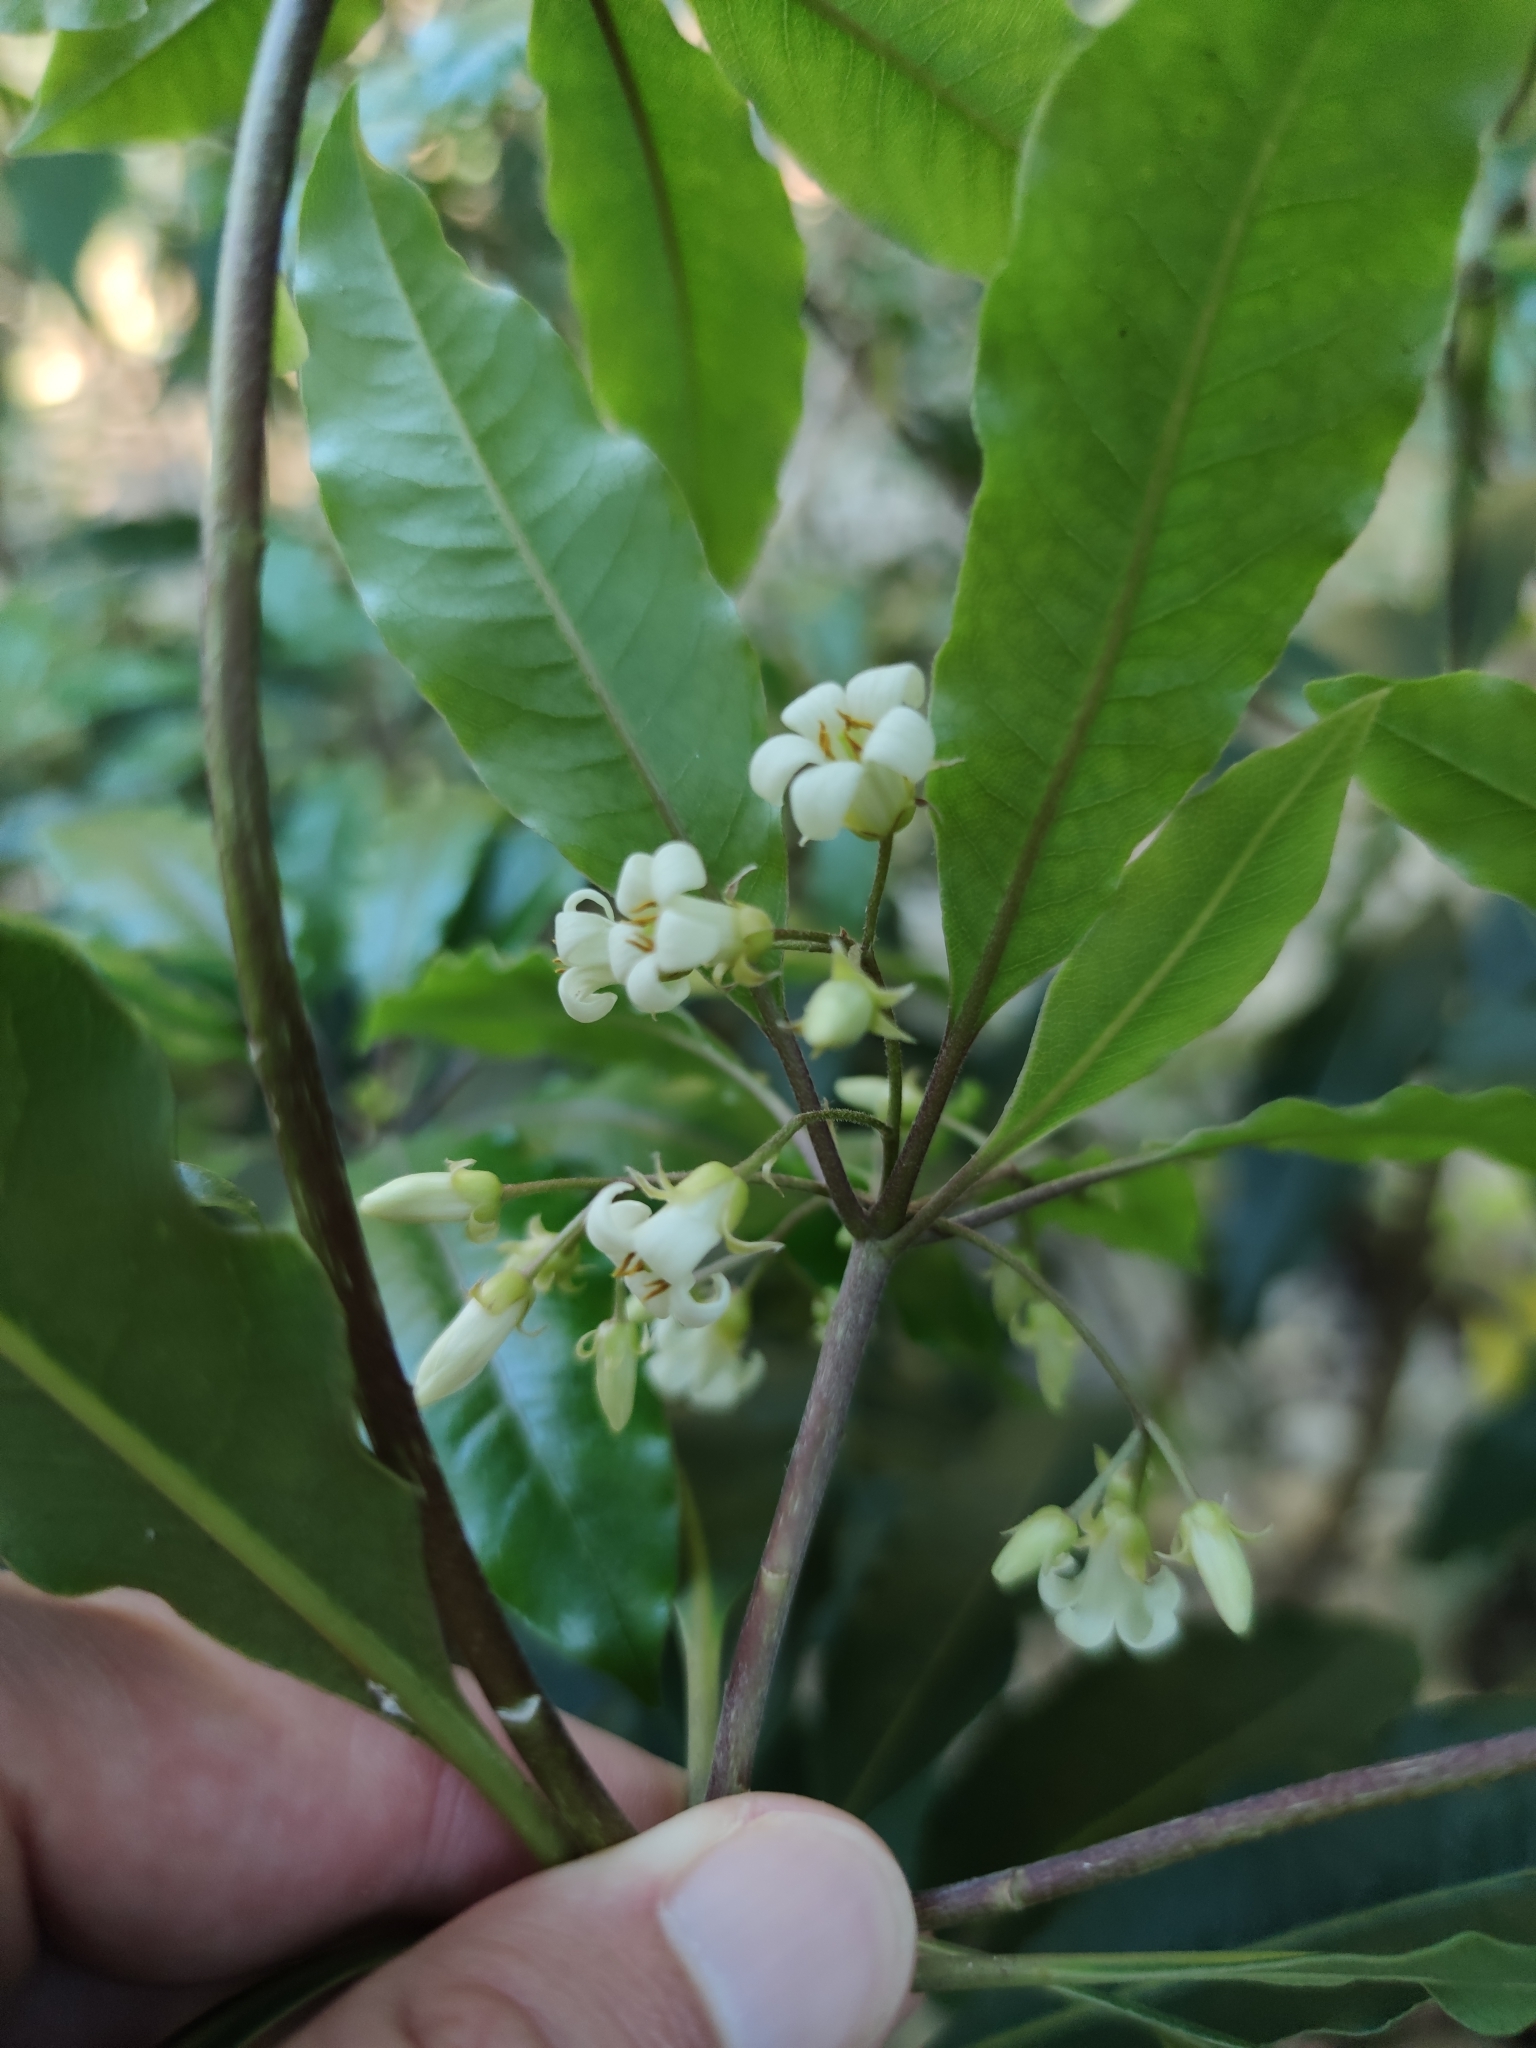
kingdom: Plantae
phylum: Tracheophyta
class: Magnoliopsida
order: Apiales
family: Pittosporaceae
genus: Pittosporum
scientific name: Pittosporum undulatum
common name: Australian cheesewood
